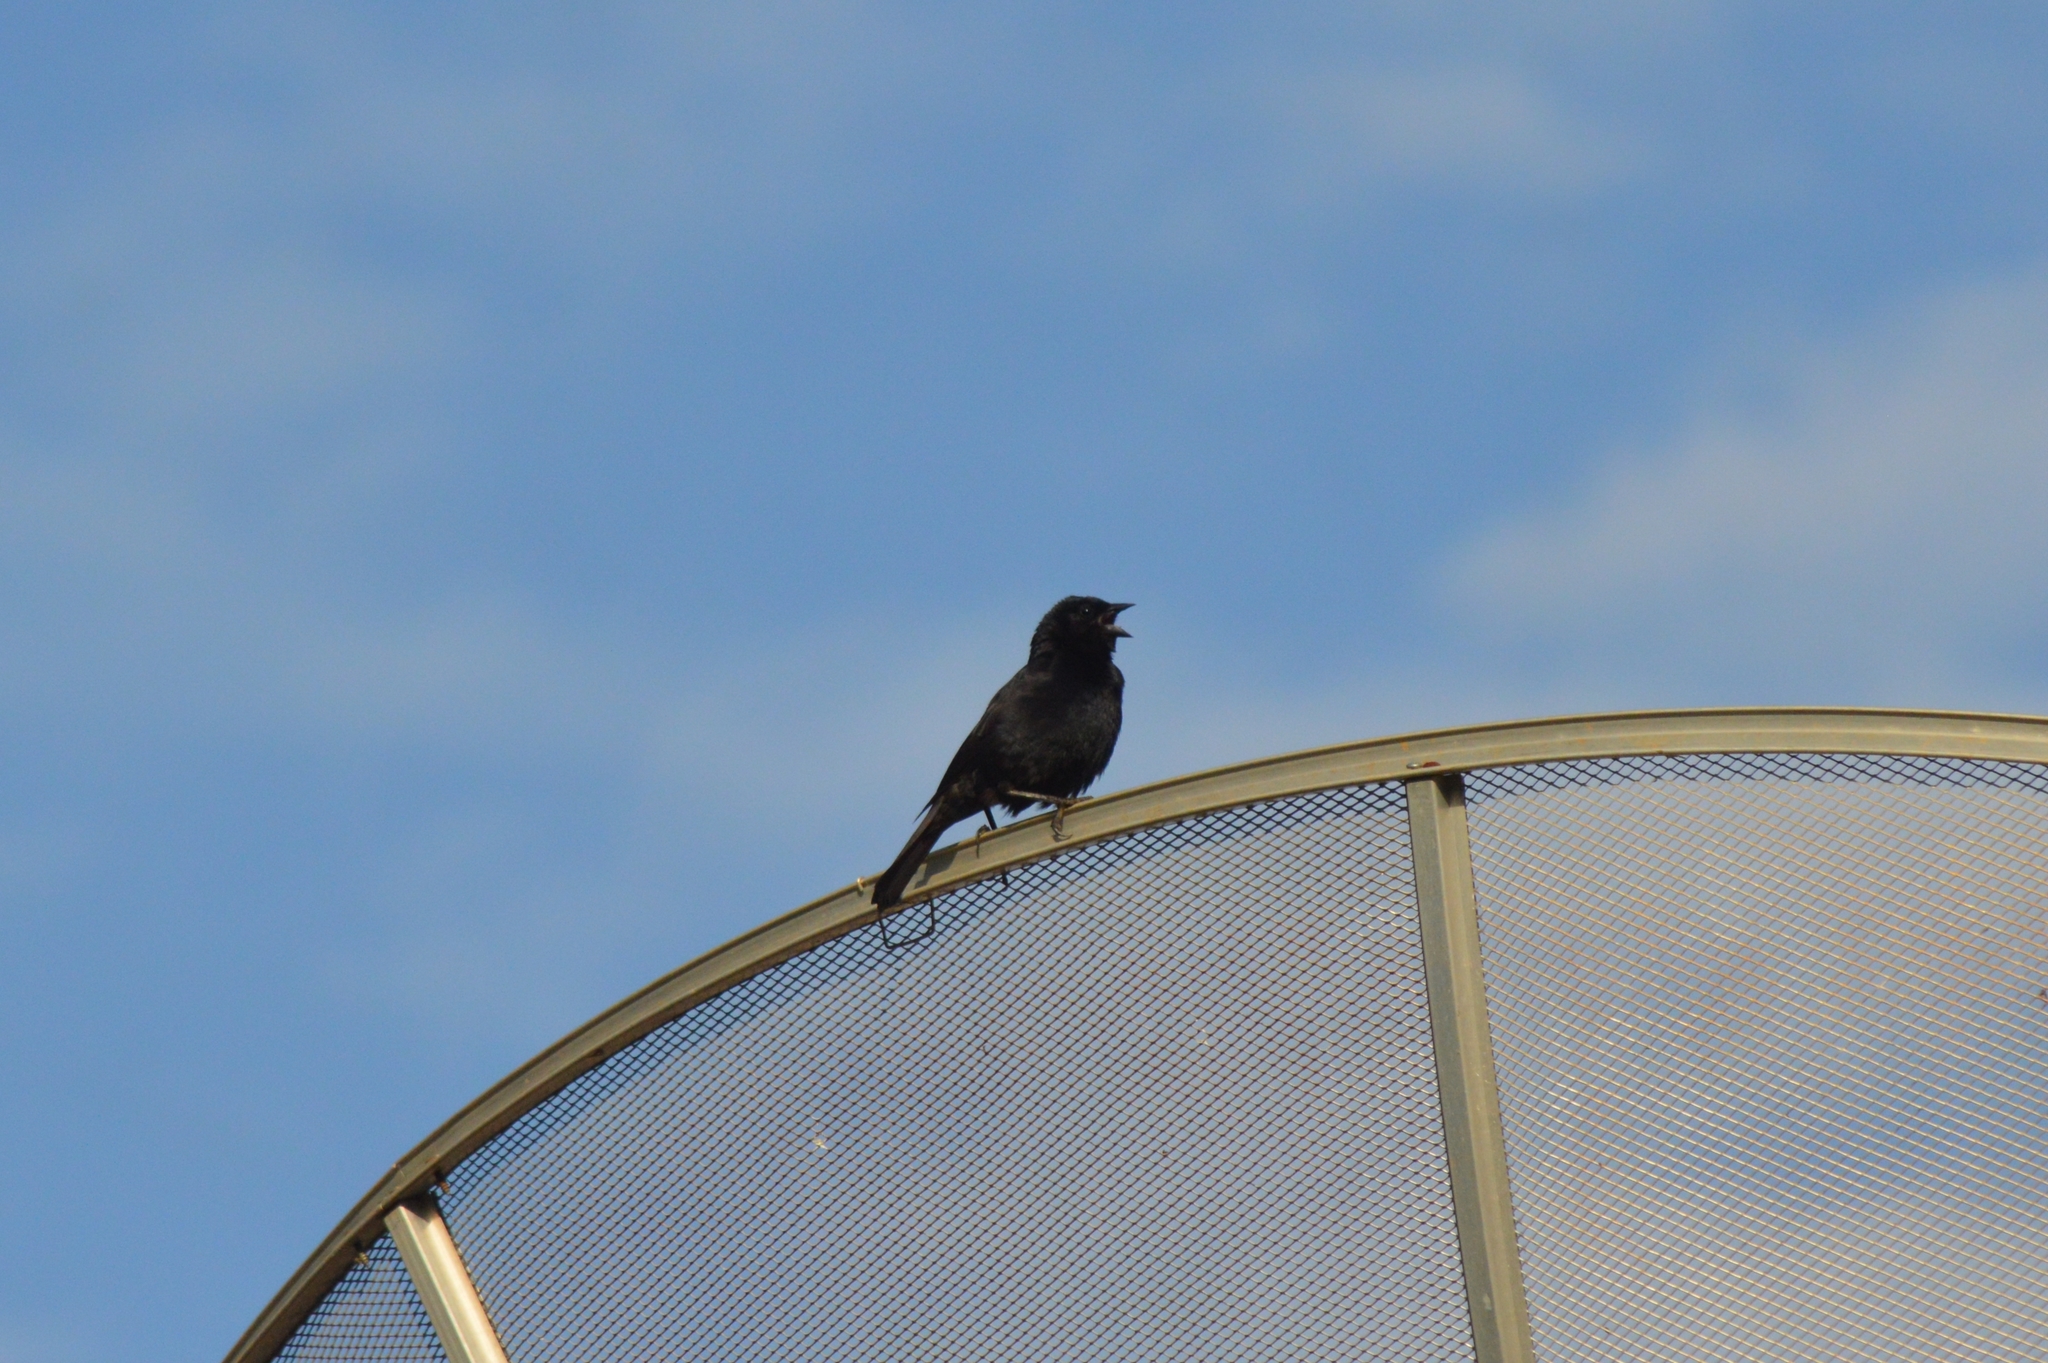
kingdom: Animalia
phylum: Chordata
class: Aves
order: Passeriformes
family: Icteridae
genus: Molothrus
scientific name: Molothrus bonariensis
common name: Shiny cowbird
